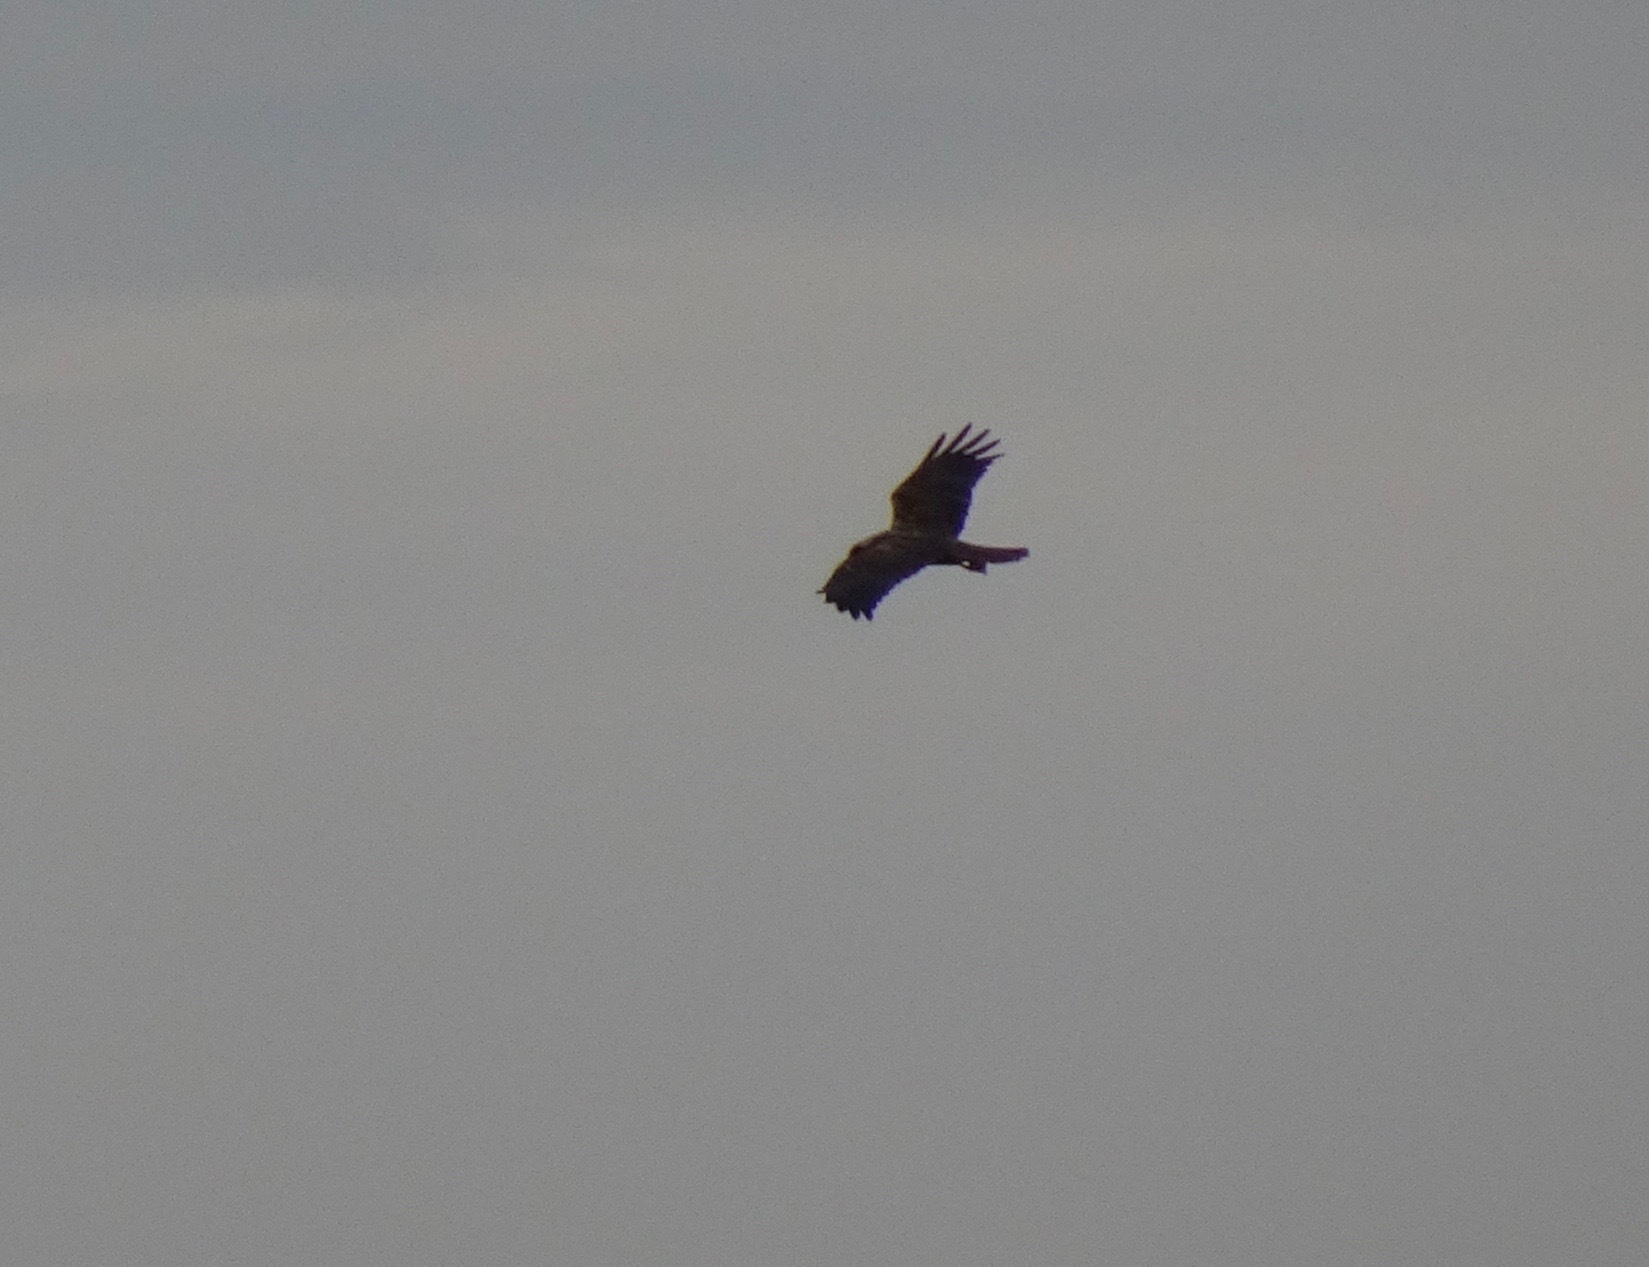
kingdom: Animalia
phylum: Chordata
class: Aves
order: Accipitriformes
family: Accipitridae
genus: Circus
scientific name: Circus aeruginosus
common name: Western marsh harrier
